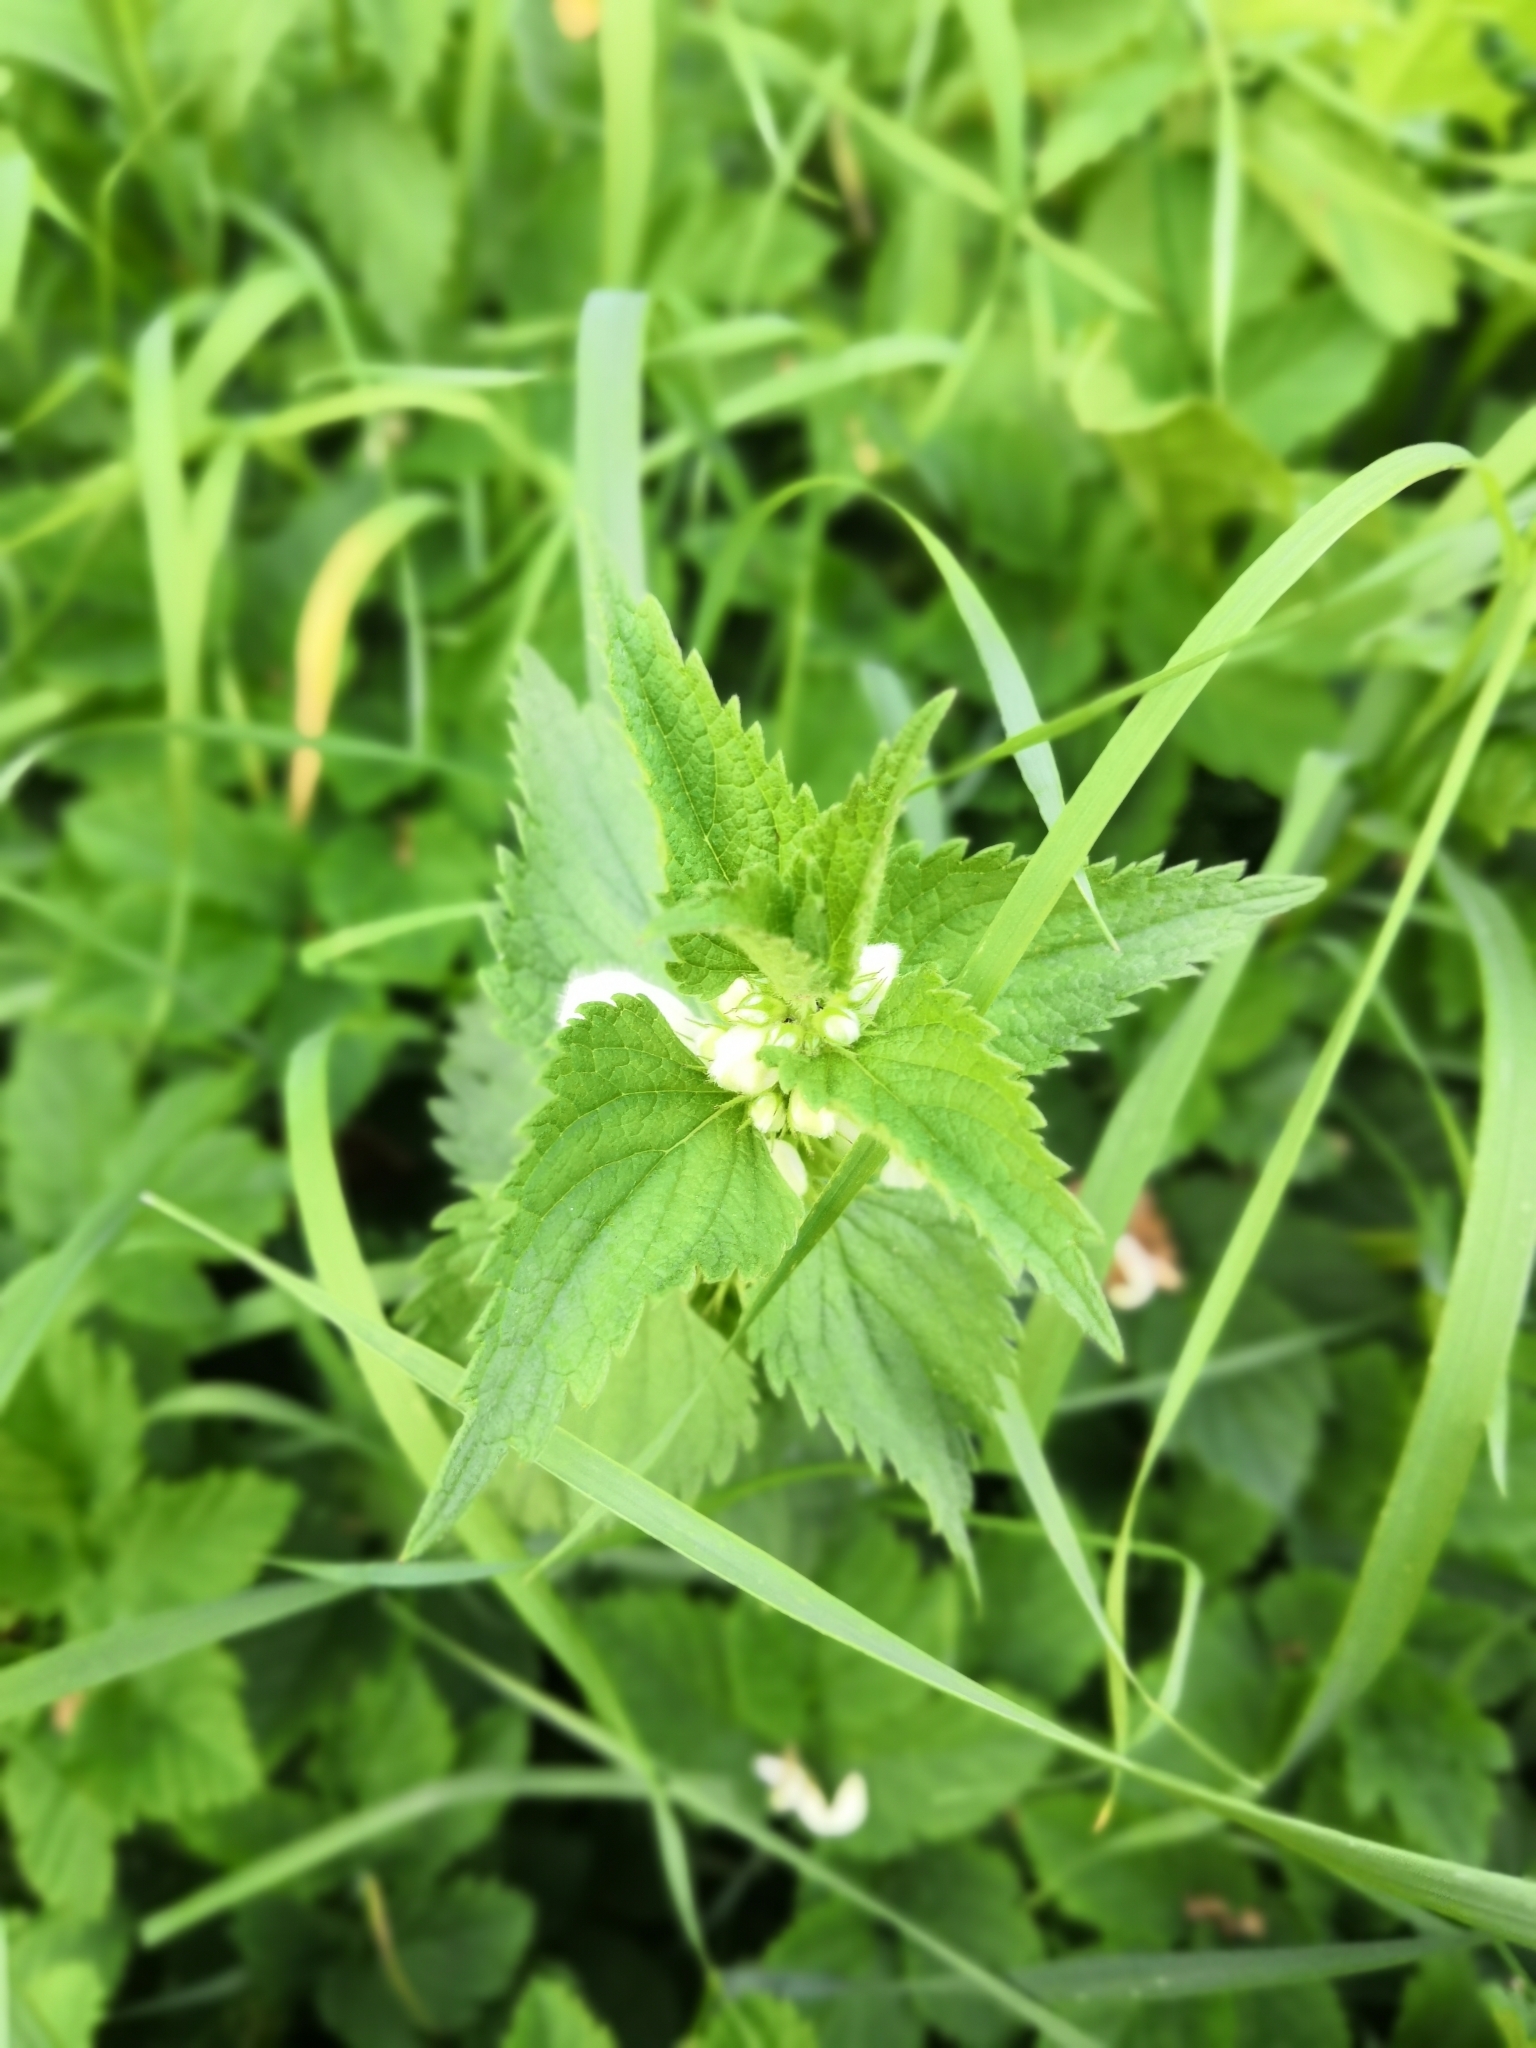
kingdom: Plantae
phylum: Tracheophyta
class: Magnoliopsida
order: Lamiales
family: Lamiaceae
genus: Lamium
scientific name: Lamium album
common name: White dead-nettle
